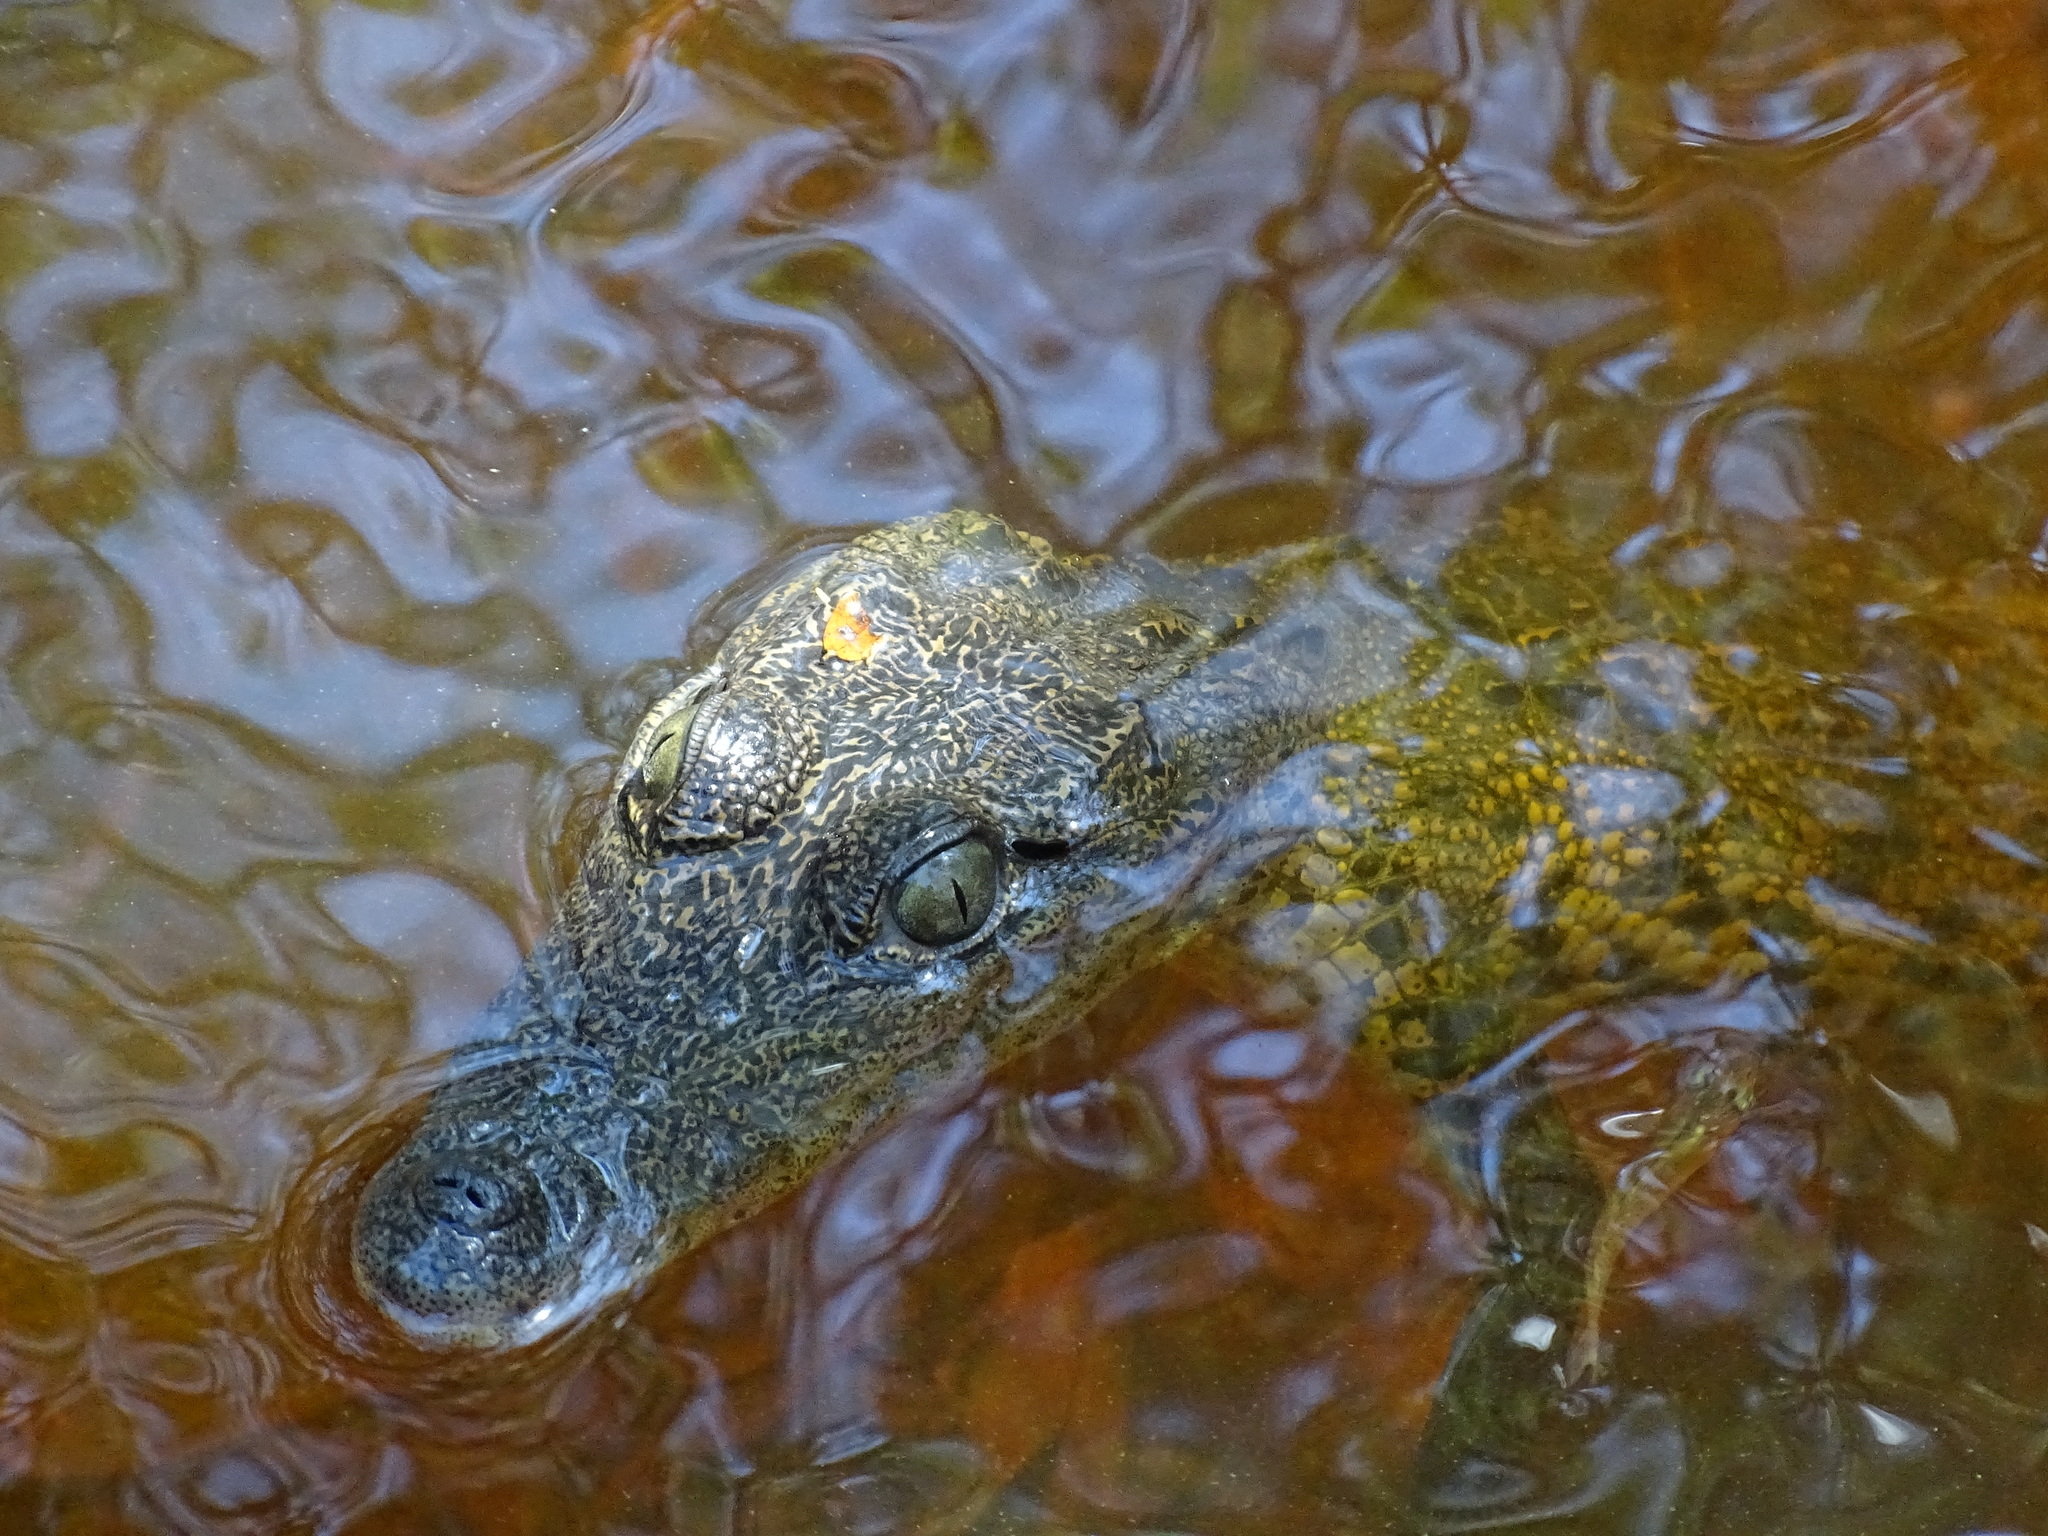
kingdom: Animalia
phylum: Chordata
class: Crocodylia
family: Crocodylidae
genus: Crocodylus
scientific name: Crocodylus moreletii
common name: Morelet's crocodile
